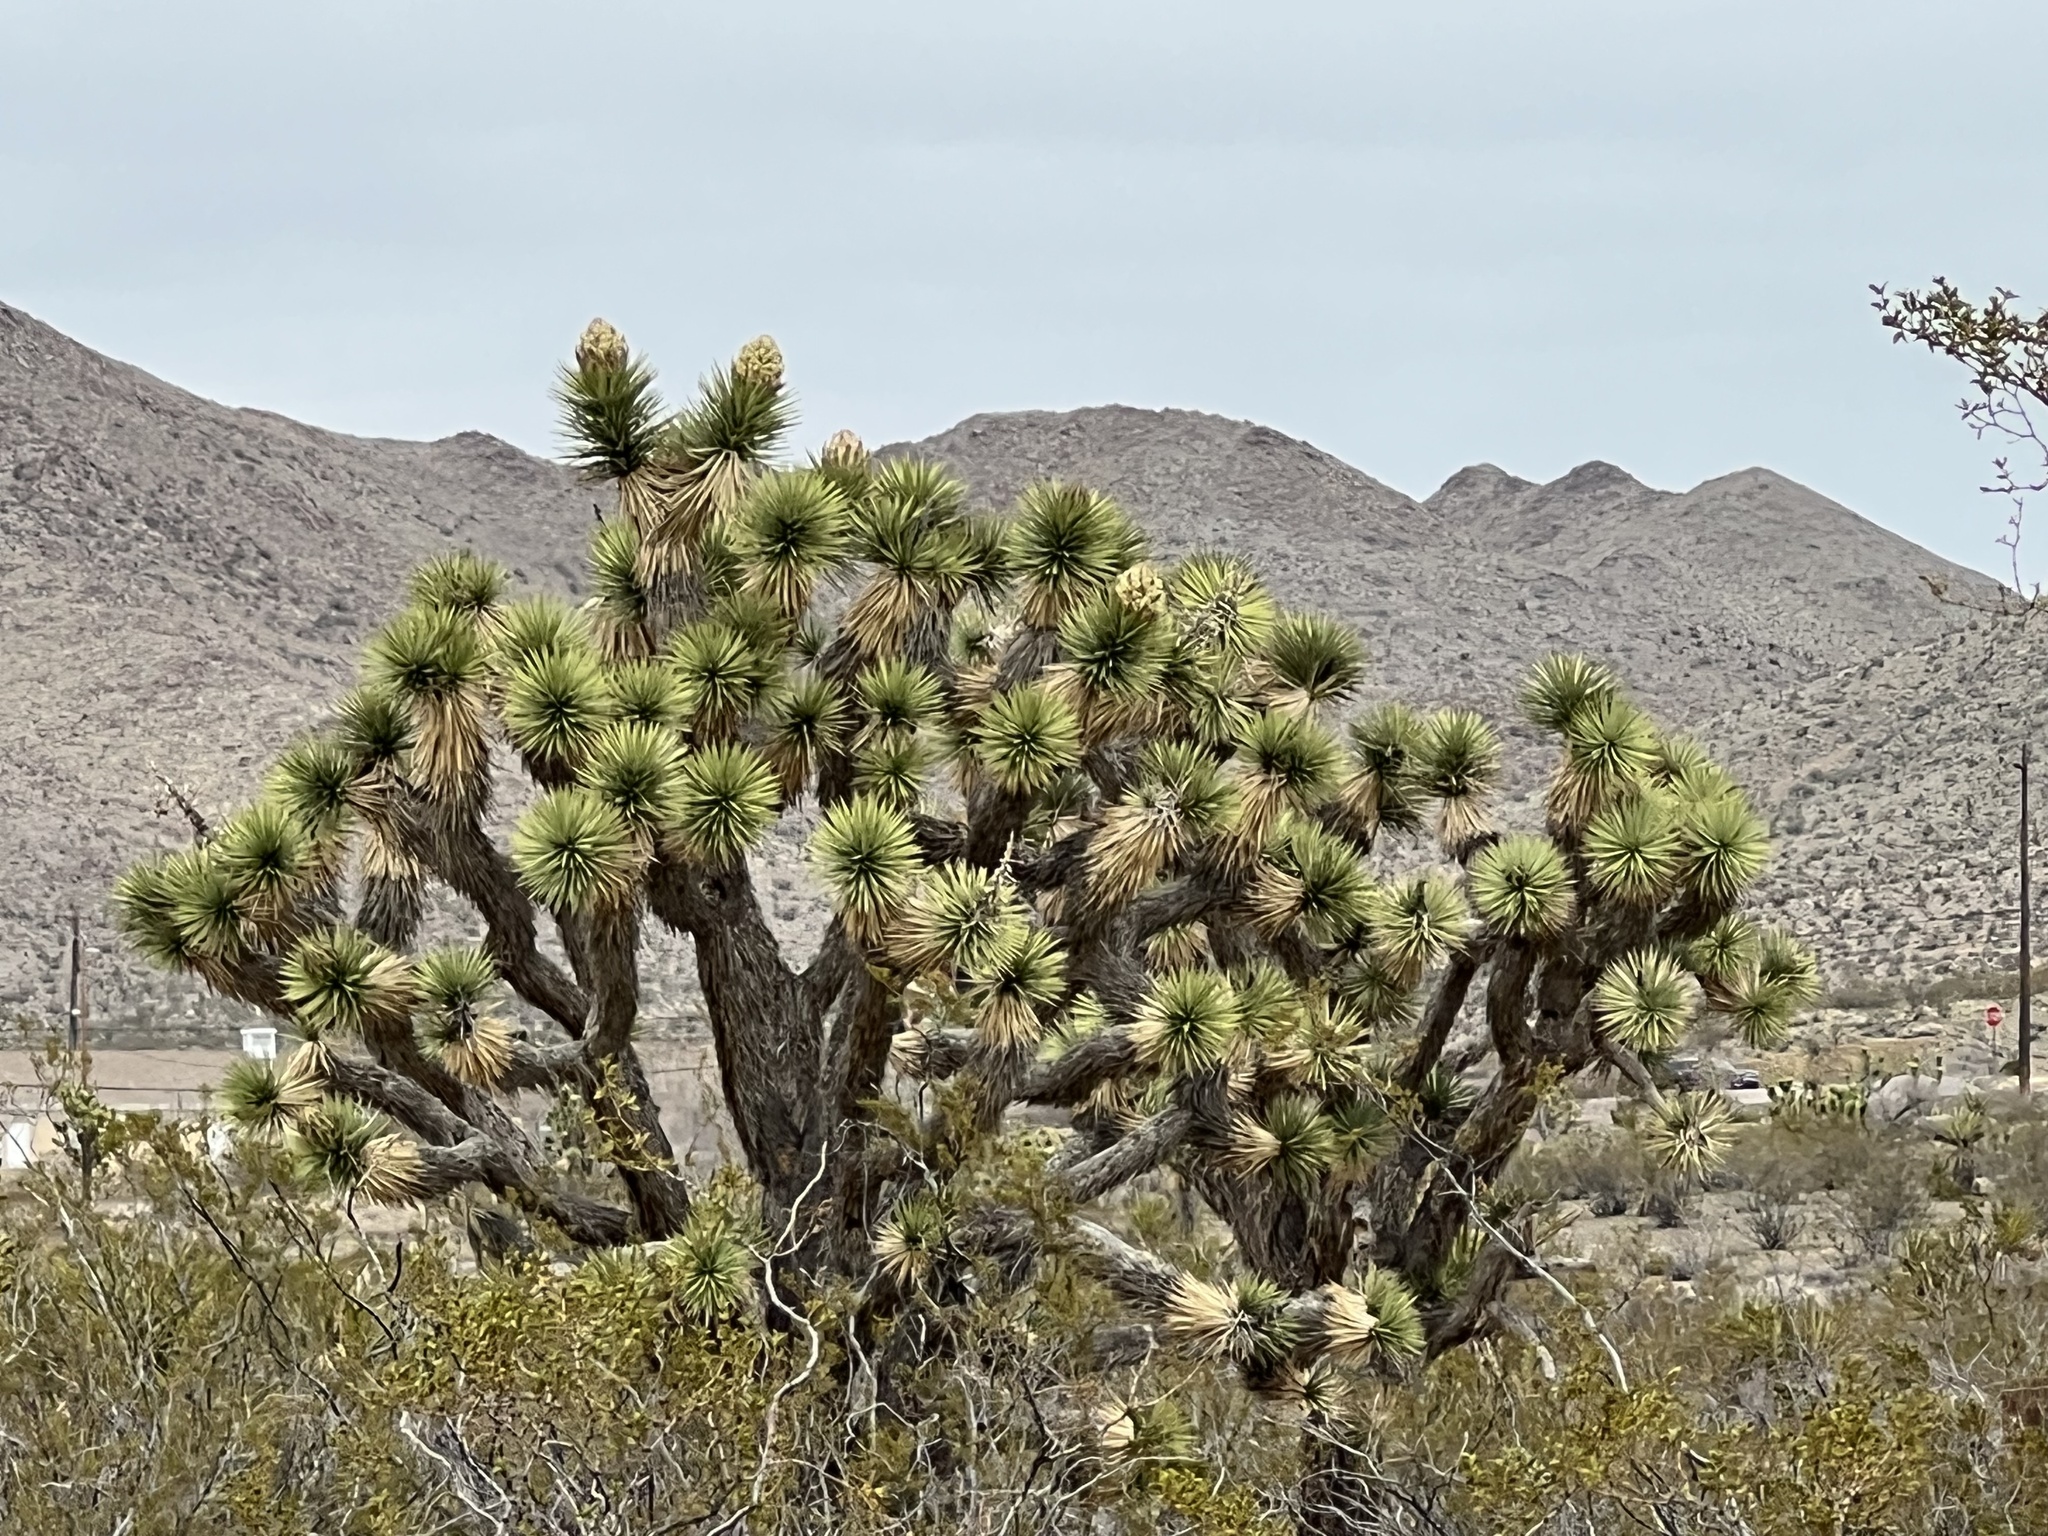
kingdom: Plantae
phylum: Tracheophyta
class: Liliopsida
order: Asparagales
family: Asparagaceae
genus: Yucca
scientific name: Yucca brevifolia
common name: Joshua tree
